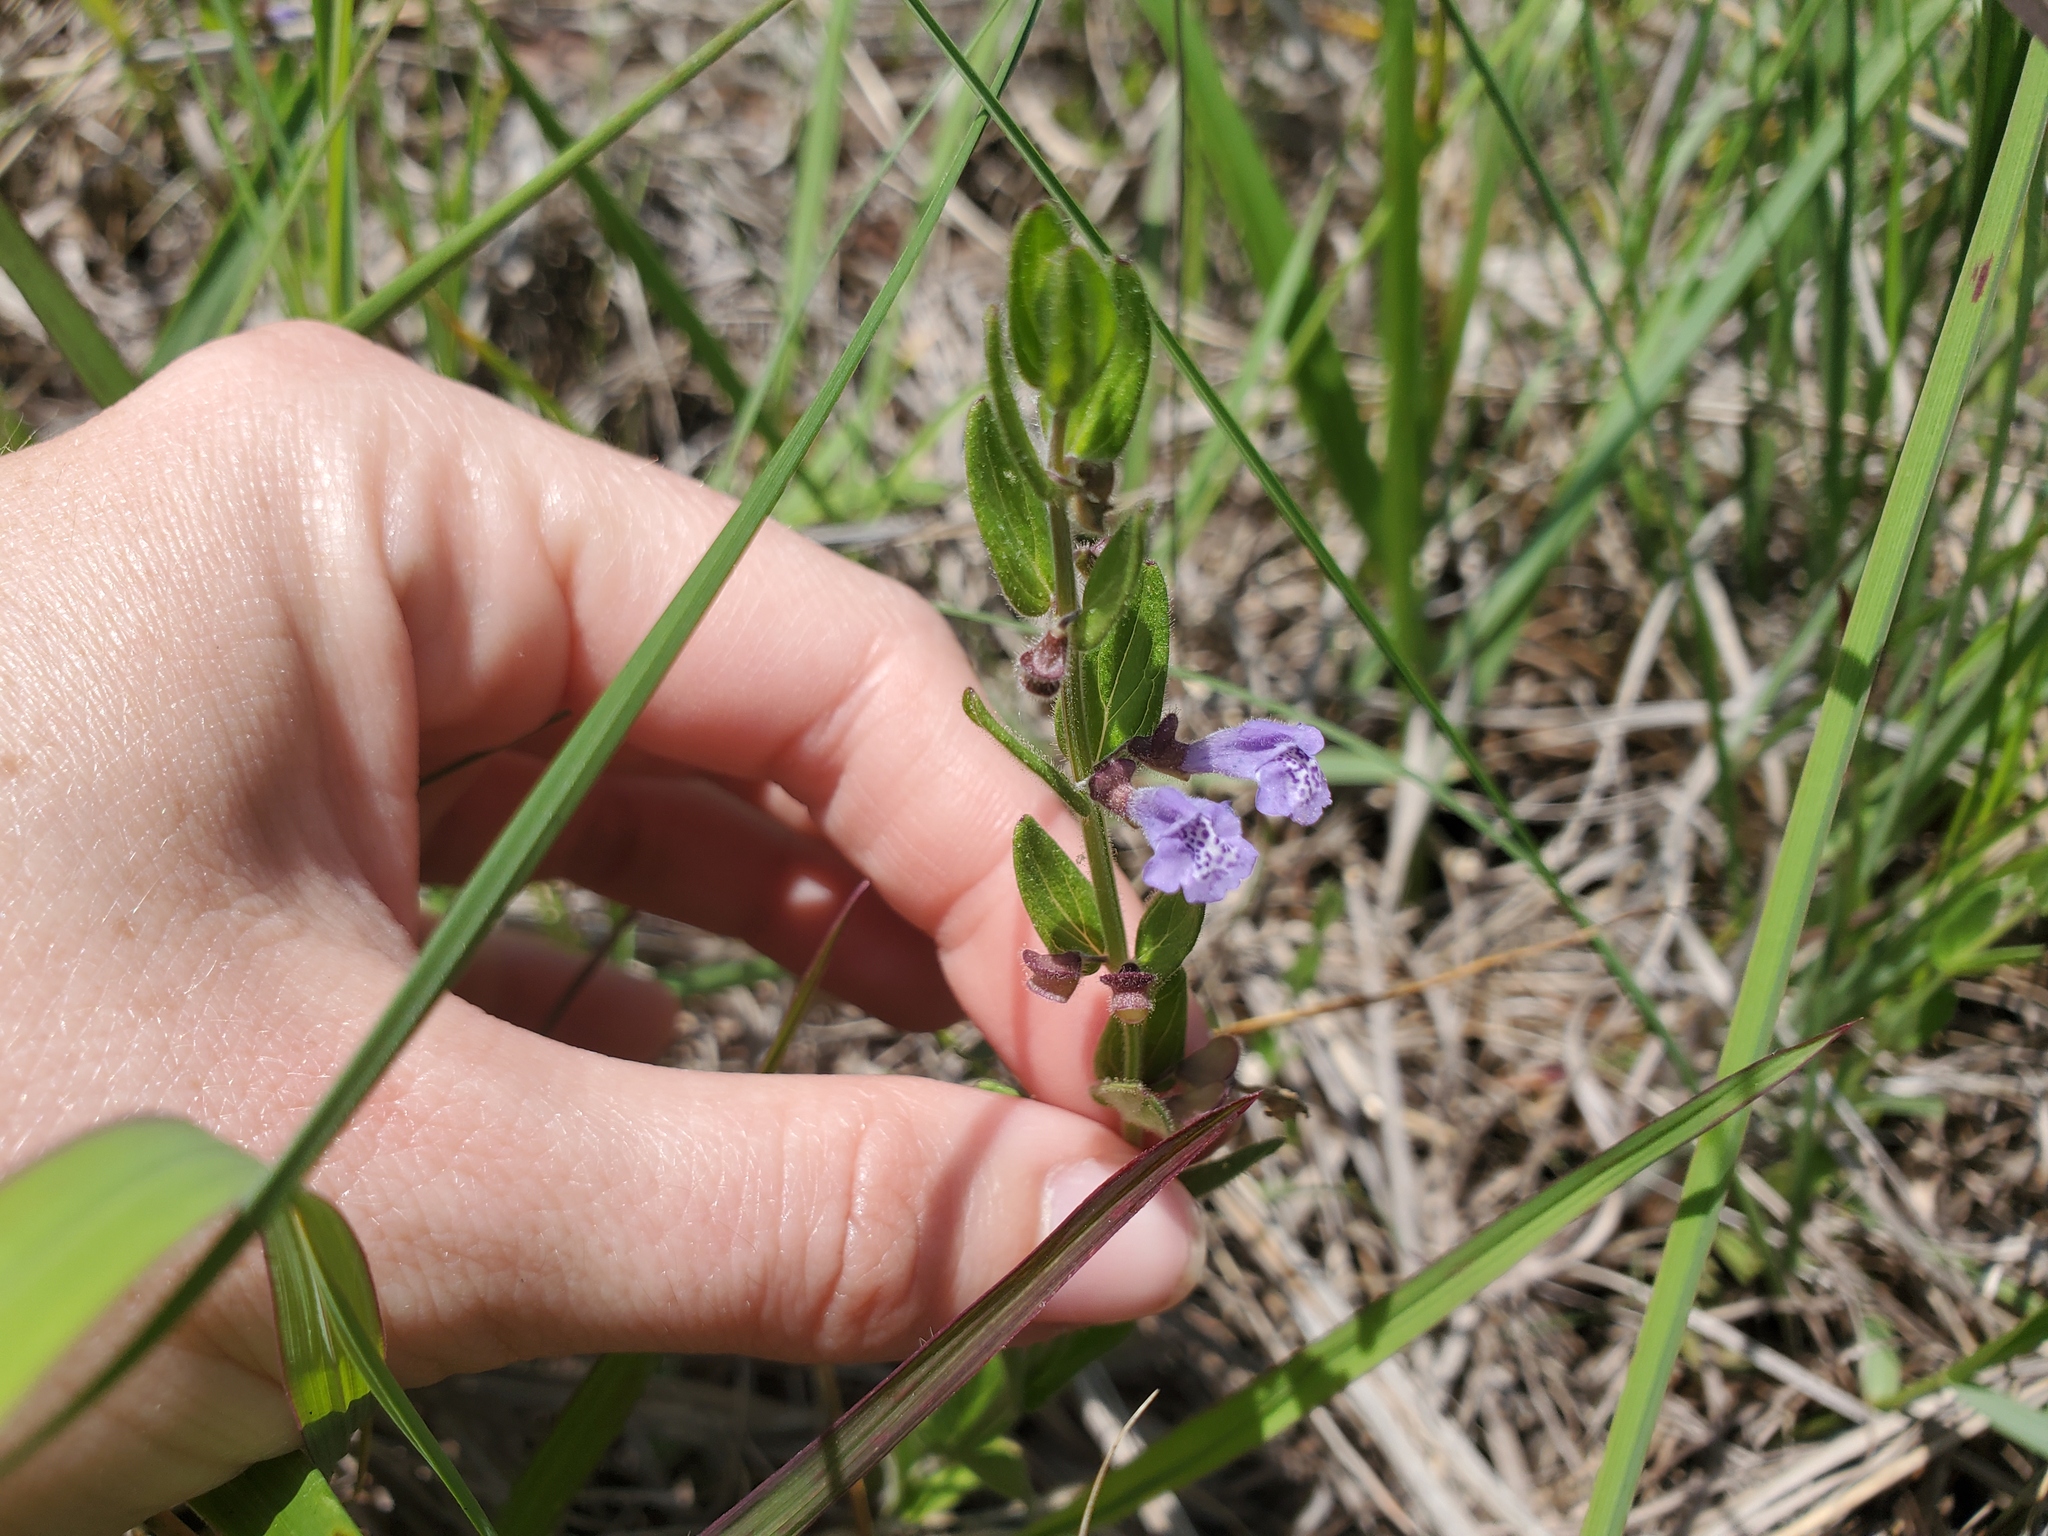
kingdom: Plantae
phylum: Tracheophyta
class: Magnoliopsida
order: Lamiales
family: Lamiaceae
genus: Scutellaria
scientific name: Scutellaria parvula
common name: Little scullcap
